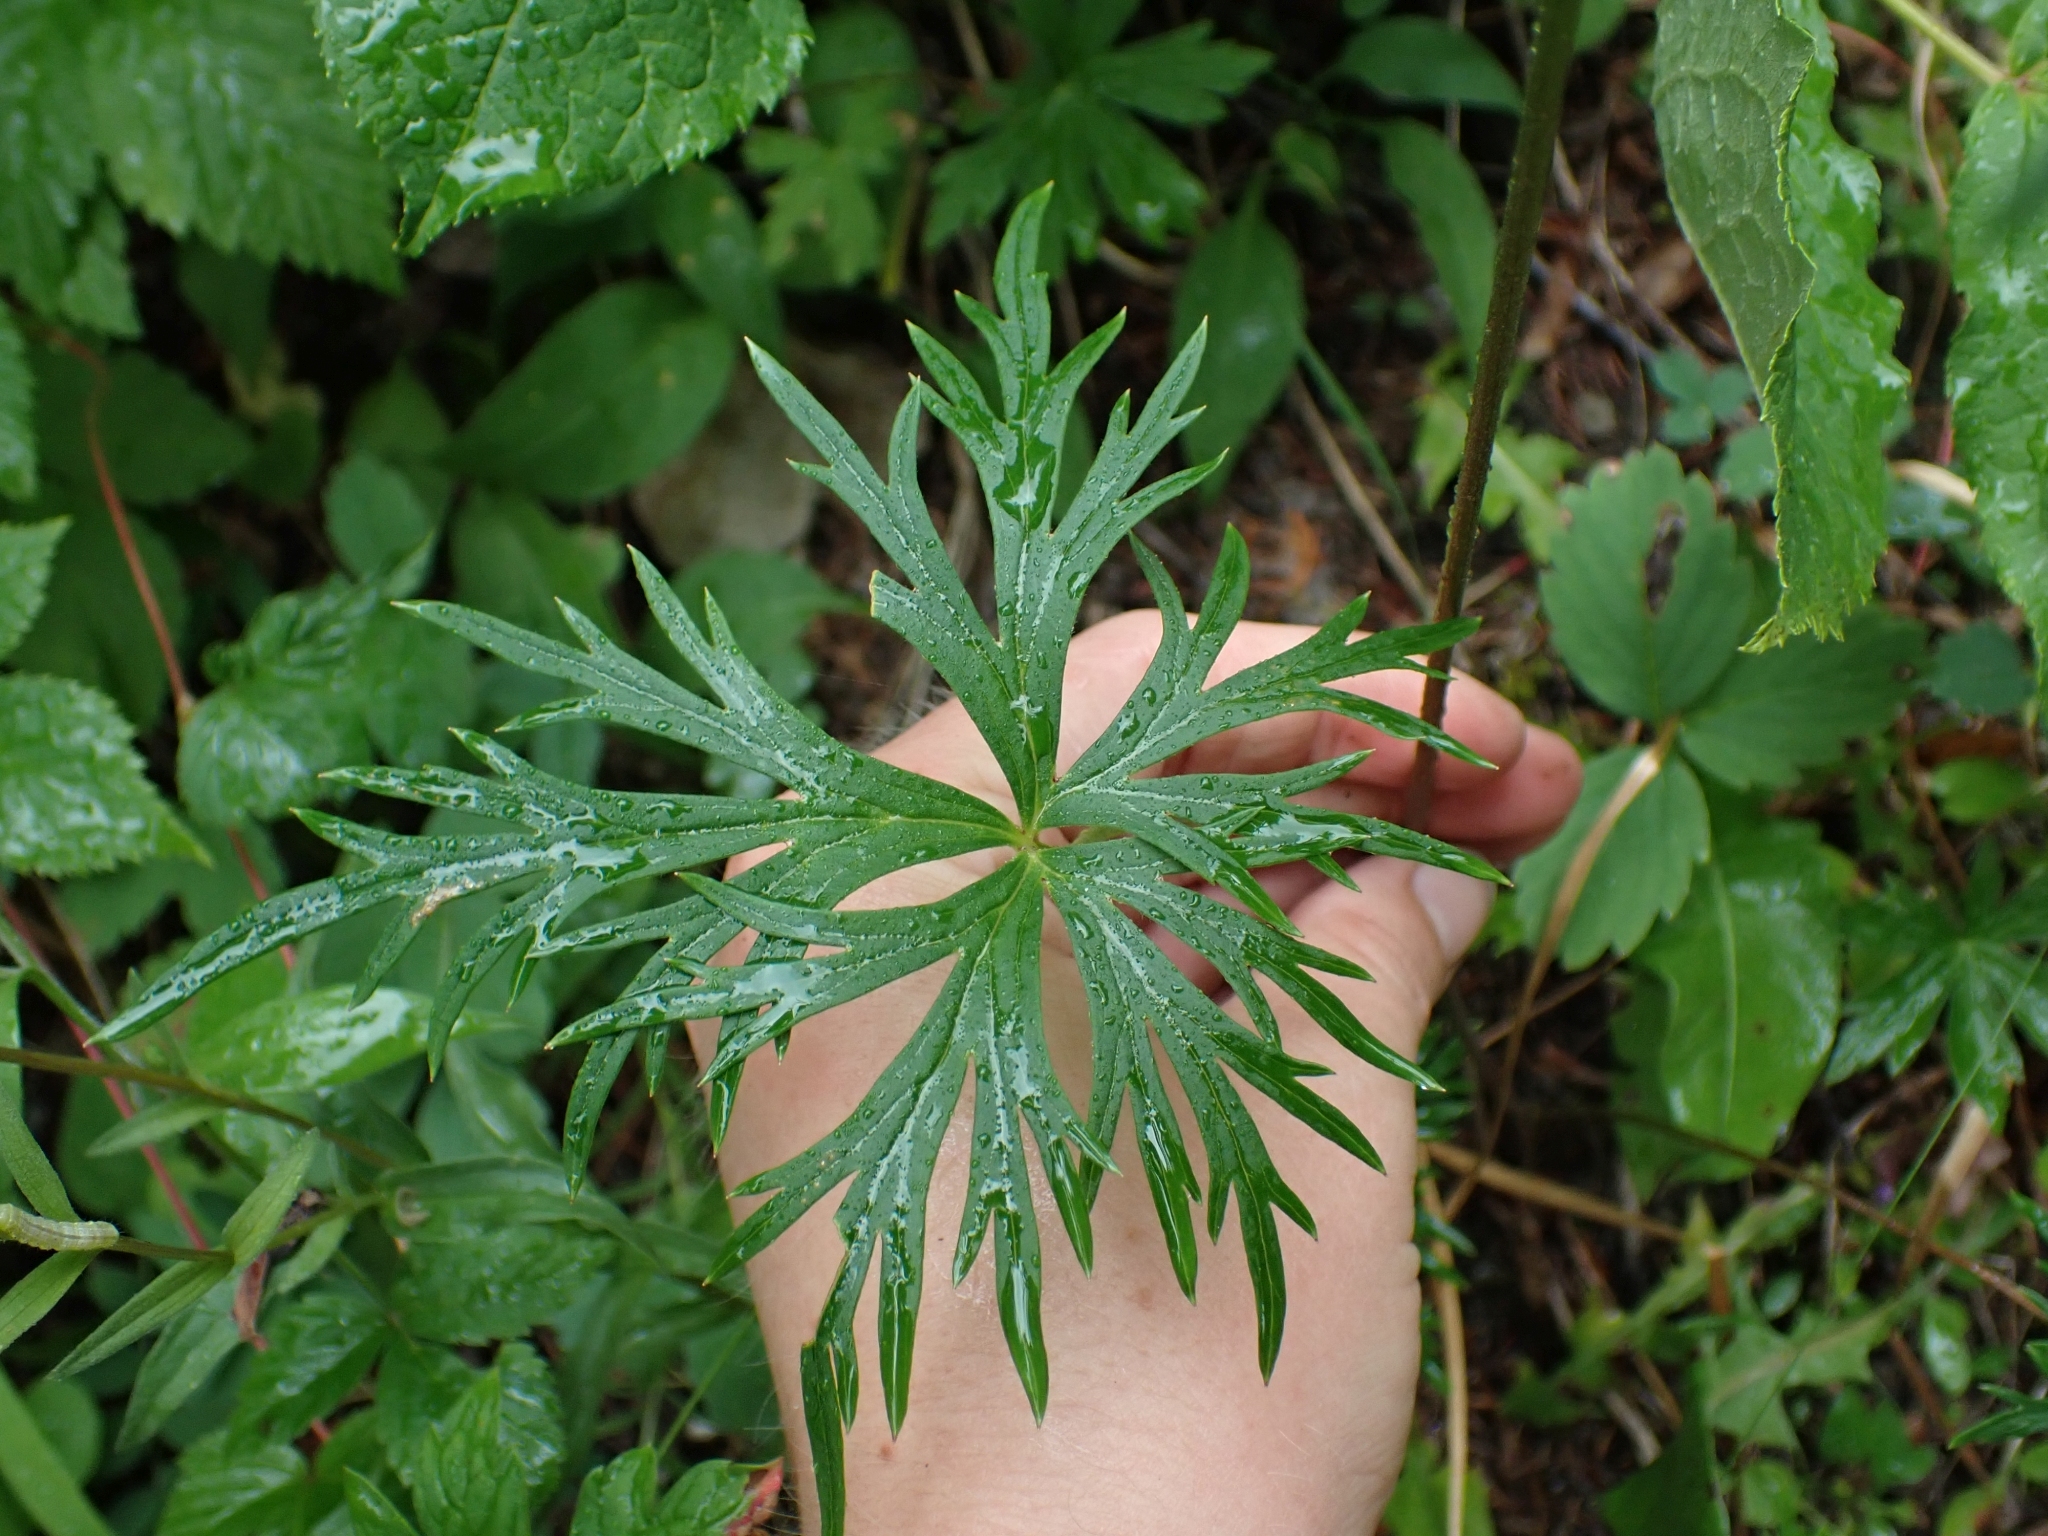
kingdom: Plantae
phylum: Tracheophyta
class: Magnoliopsida
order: Ranunculales
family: Ranunculaceae
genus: Aconitum
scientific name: Aconitum delphiniifolium
